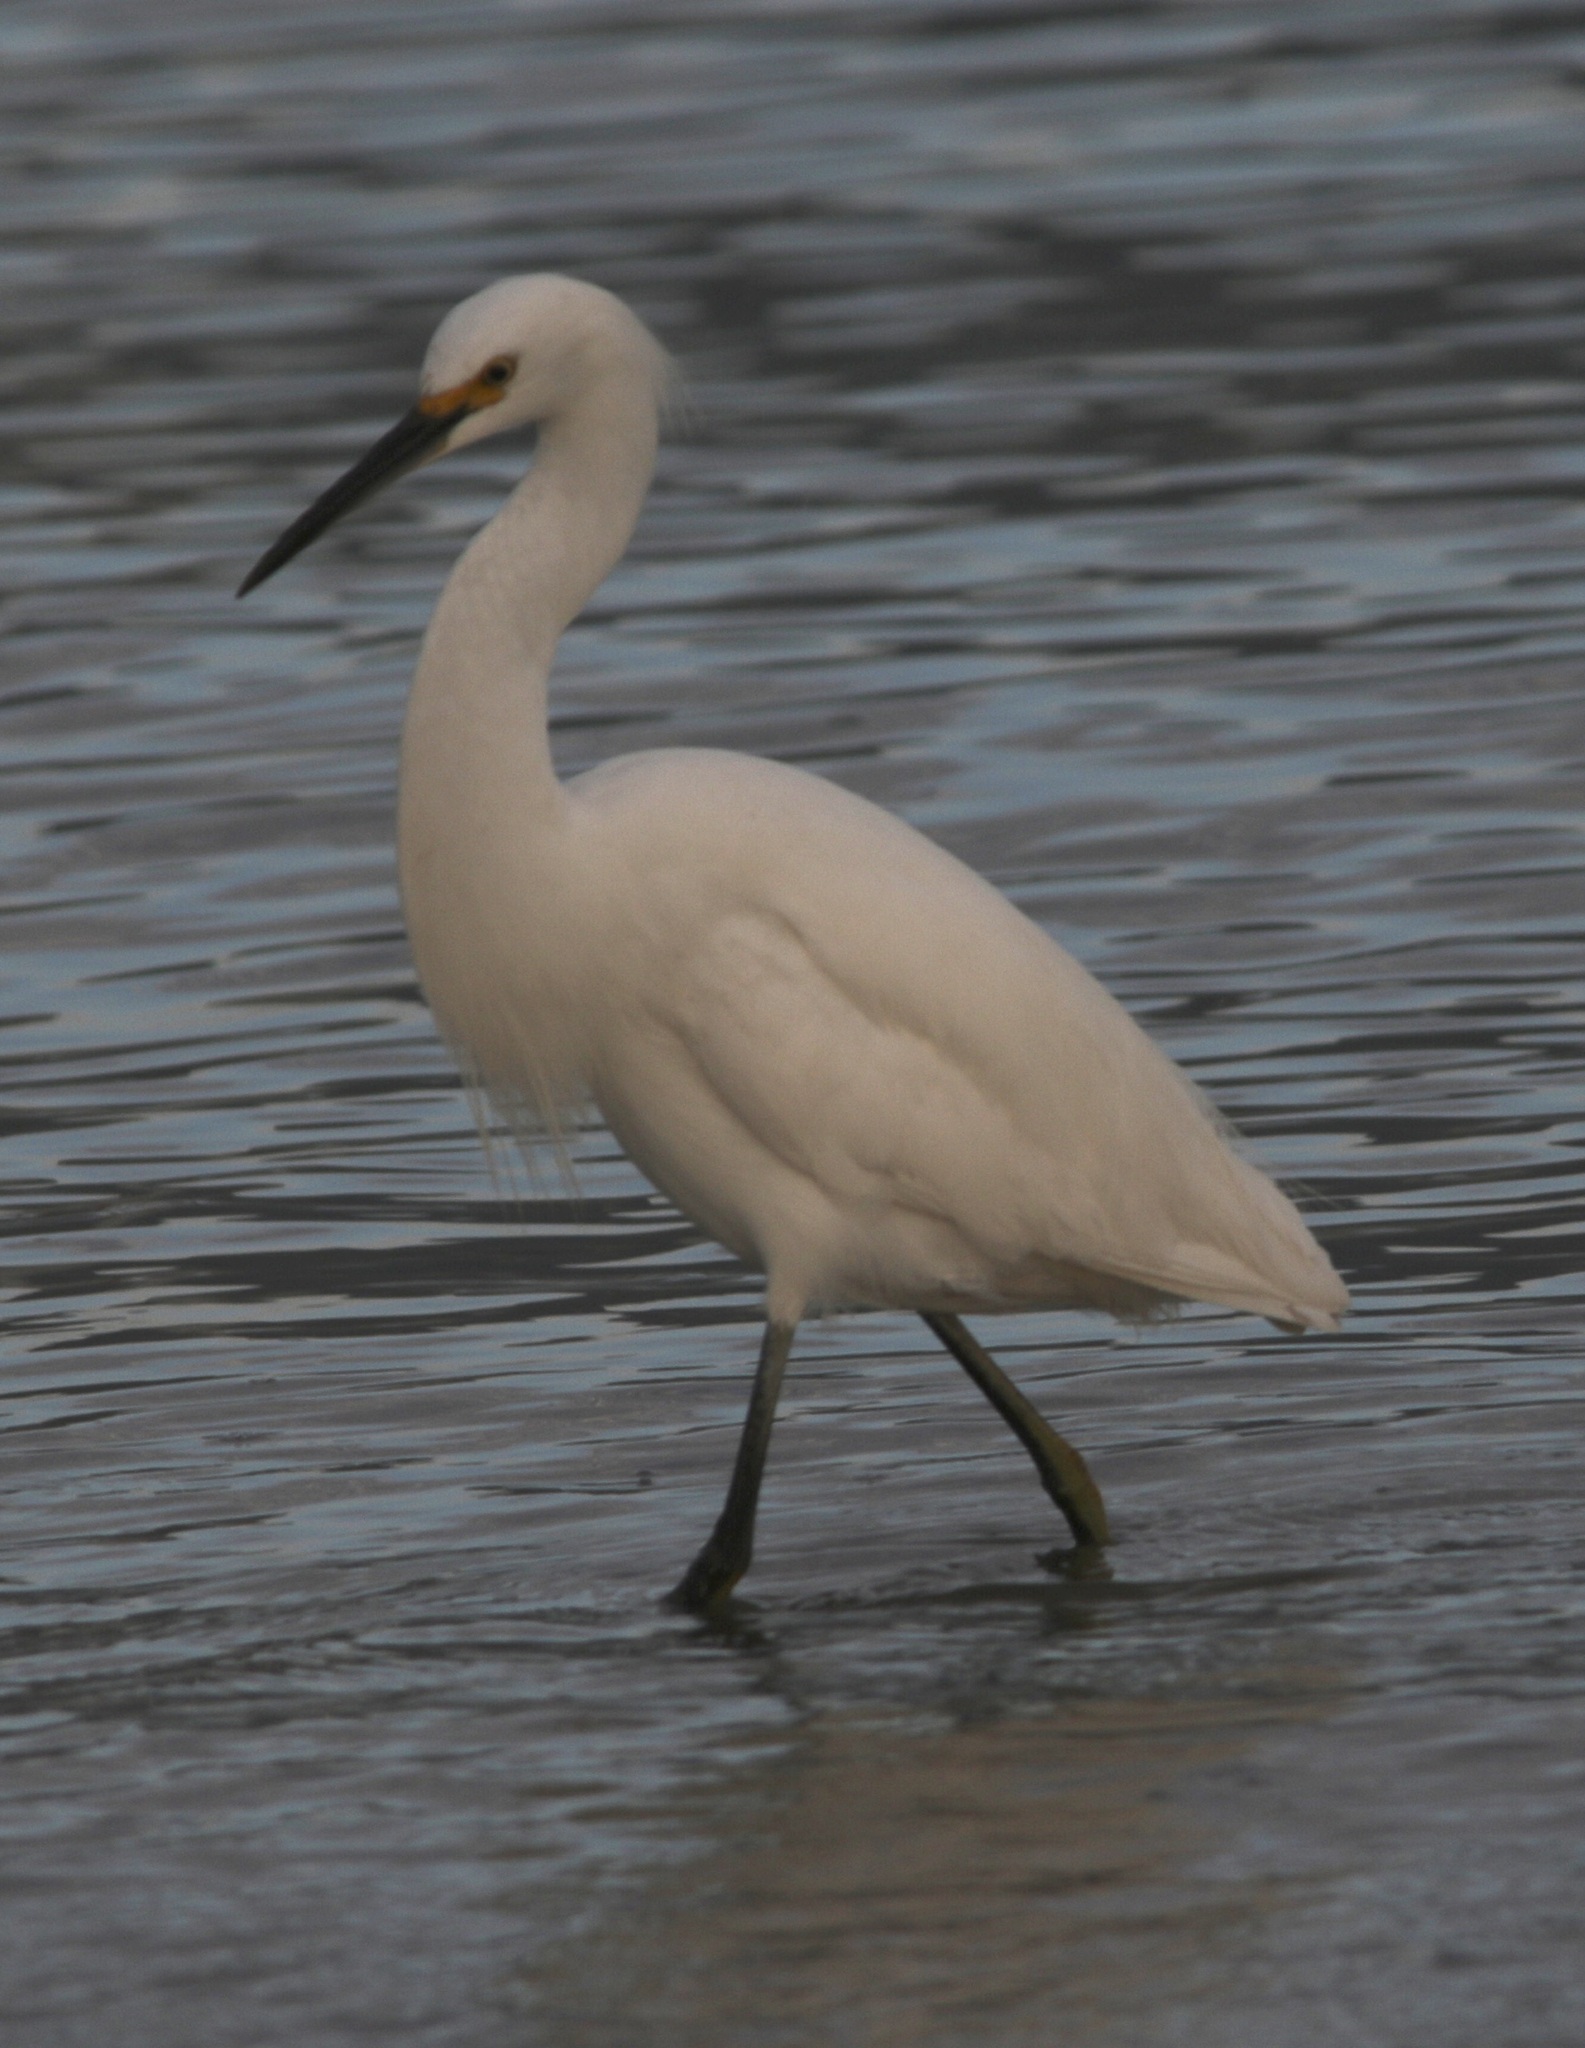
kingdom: Animalia
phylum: Chordata
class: Aves
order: Pelecaniformes
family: Ardeidae
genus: Egretta
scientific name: Egretta thula
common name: Snowy egret
